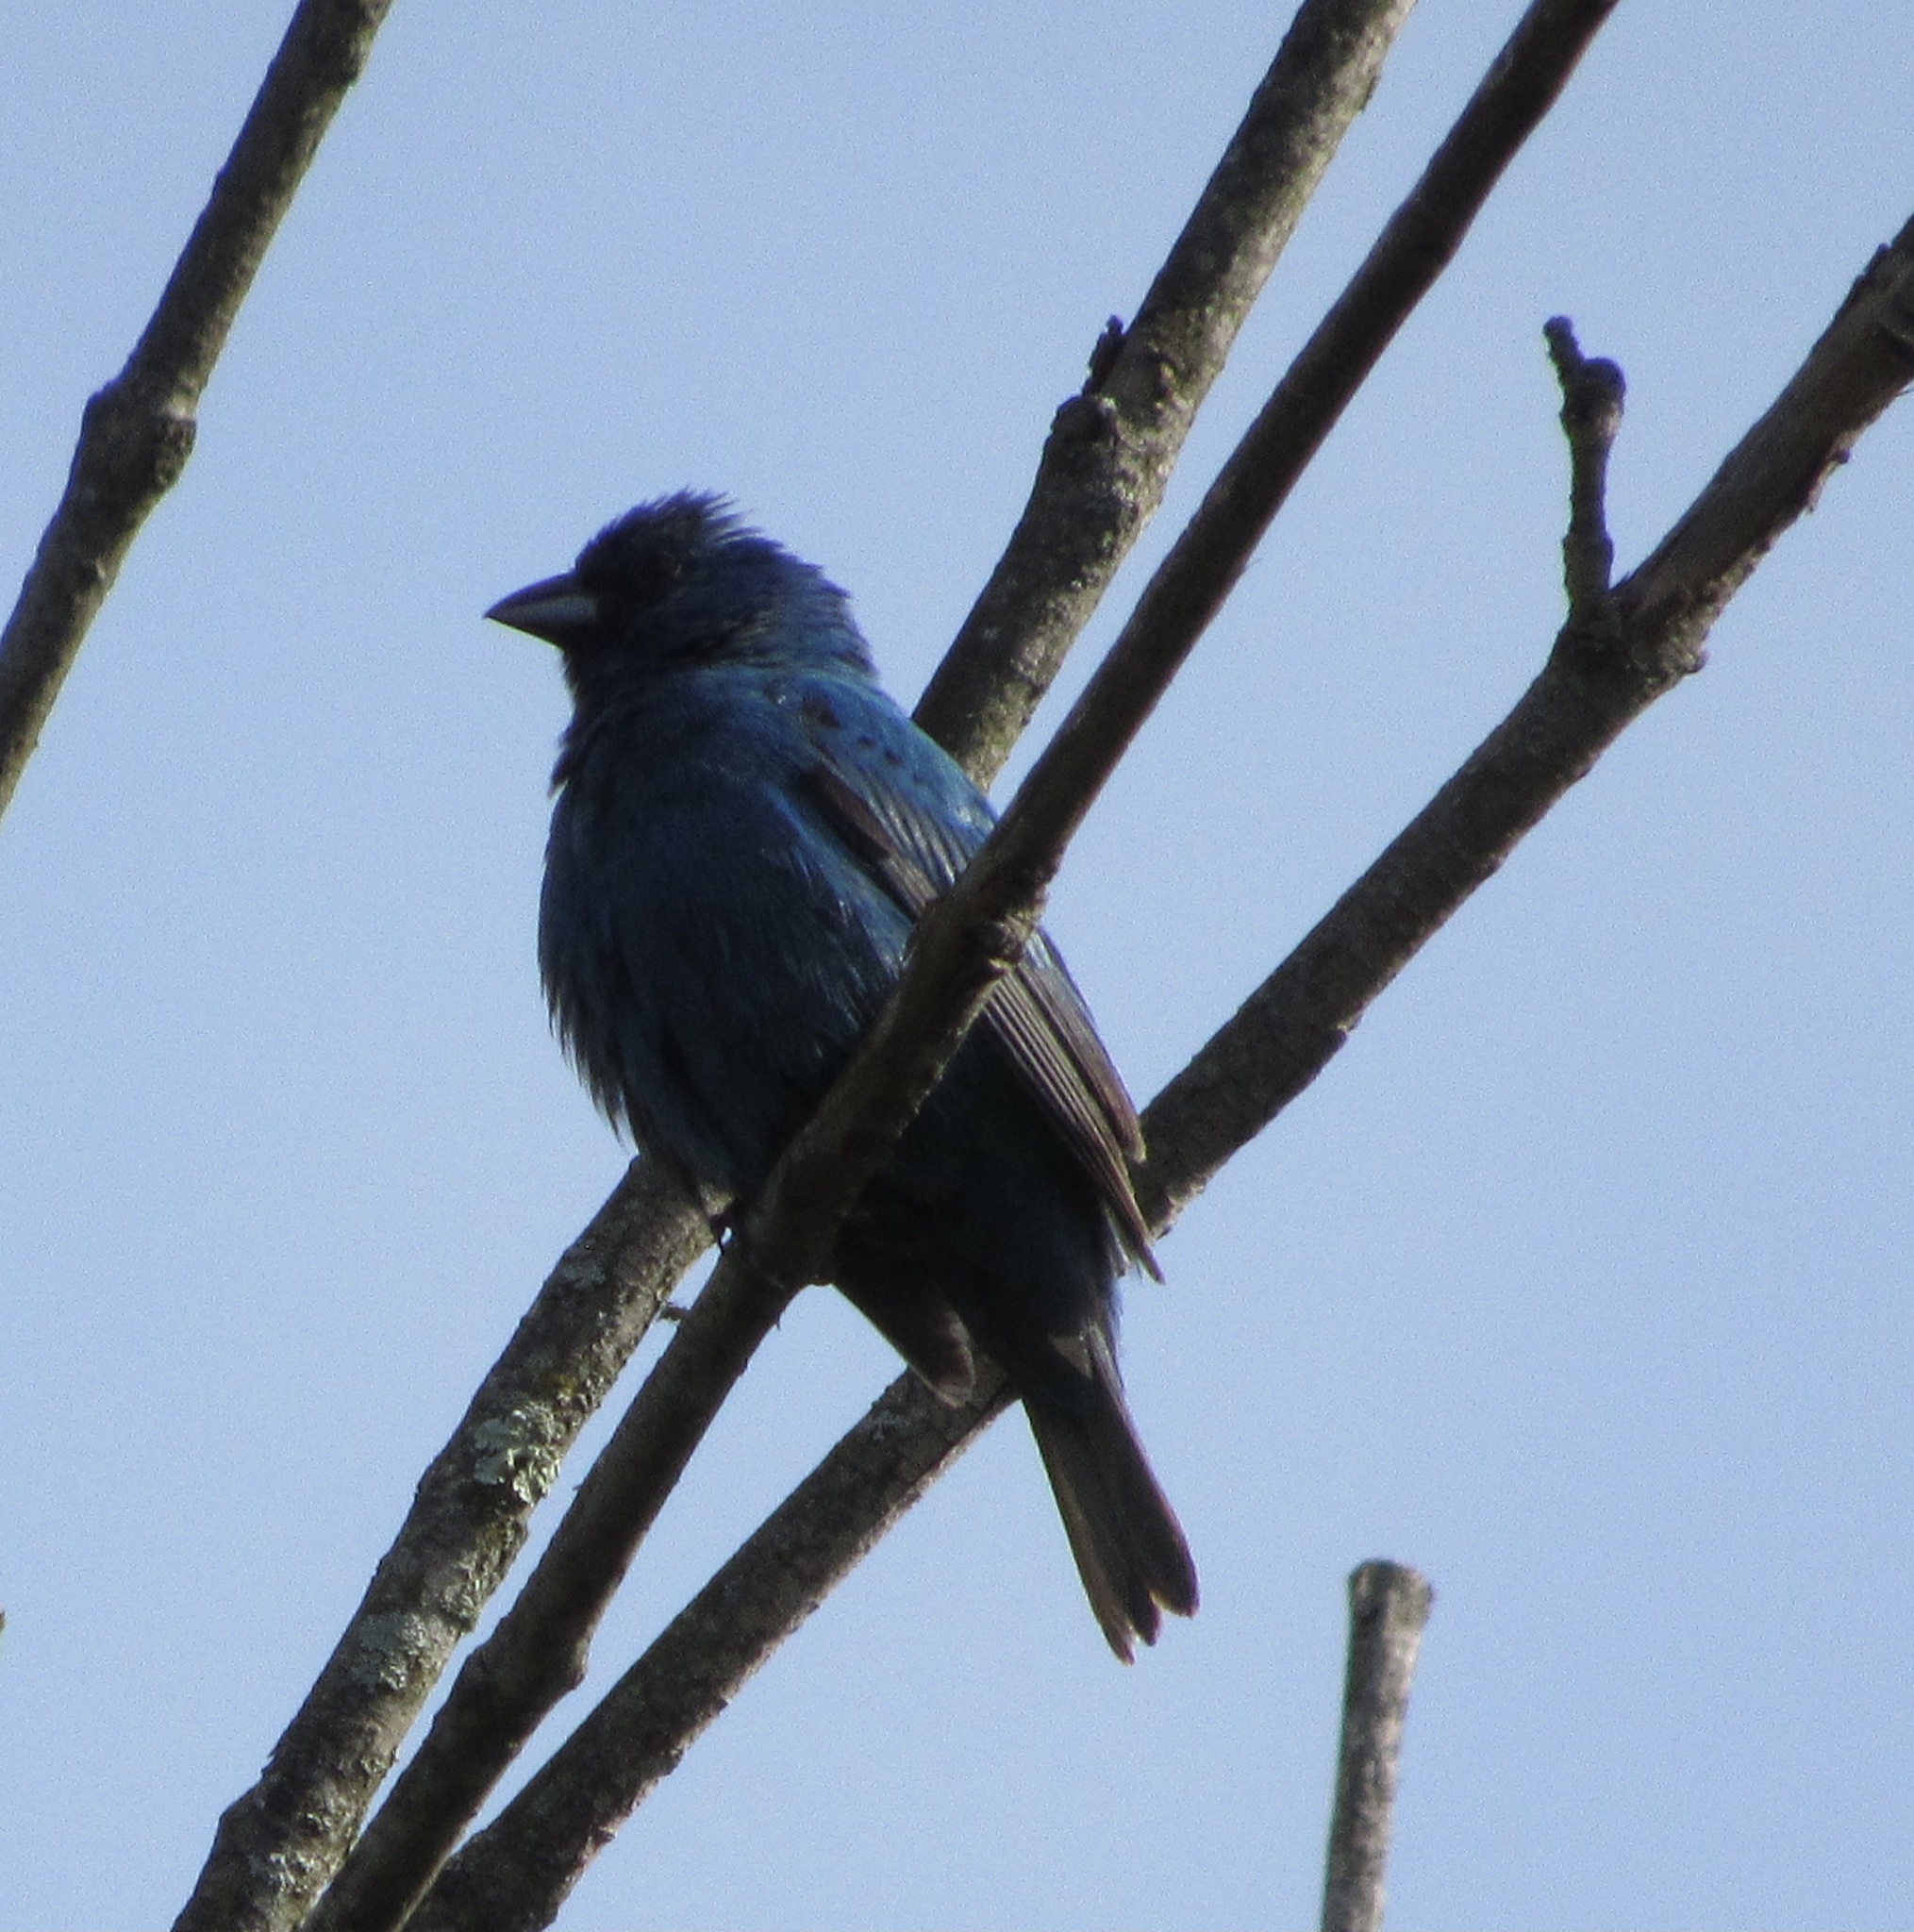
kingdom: Animalia
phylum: Chordata
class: Aves
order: Passeriformes
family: Cardinalidae
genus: Passerina
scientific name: Passerina cyanea
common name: Indigo bunting
